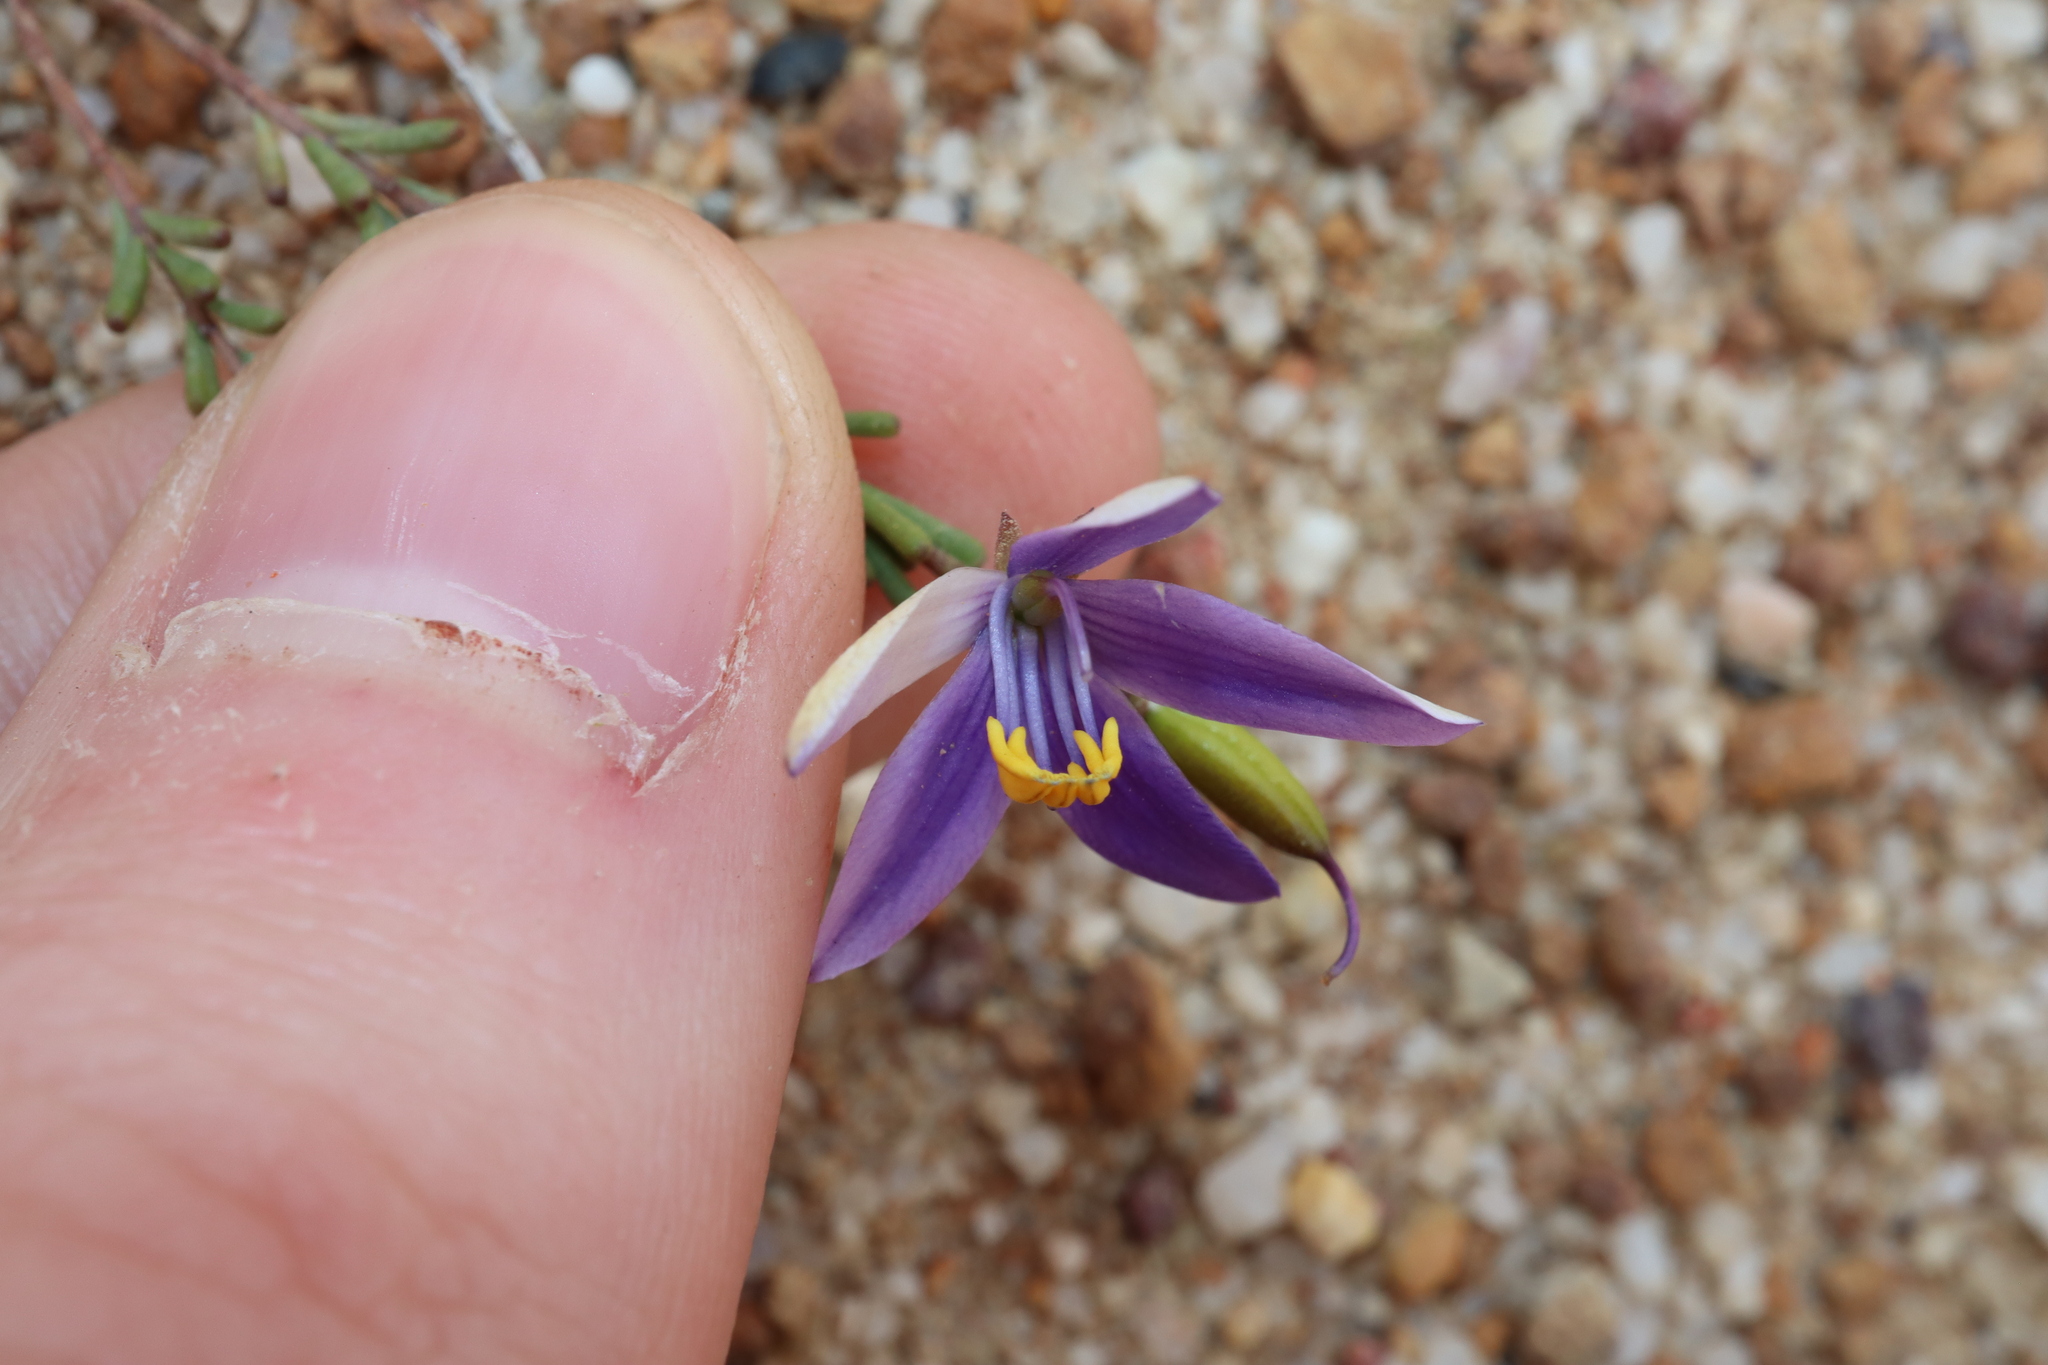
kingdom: Plantae
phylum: Tracheophyta
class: Magnoliopsida
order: Apiales
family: Pittosporaceae
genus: Cheiranthera
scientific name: Cheiranthera brevifolia
